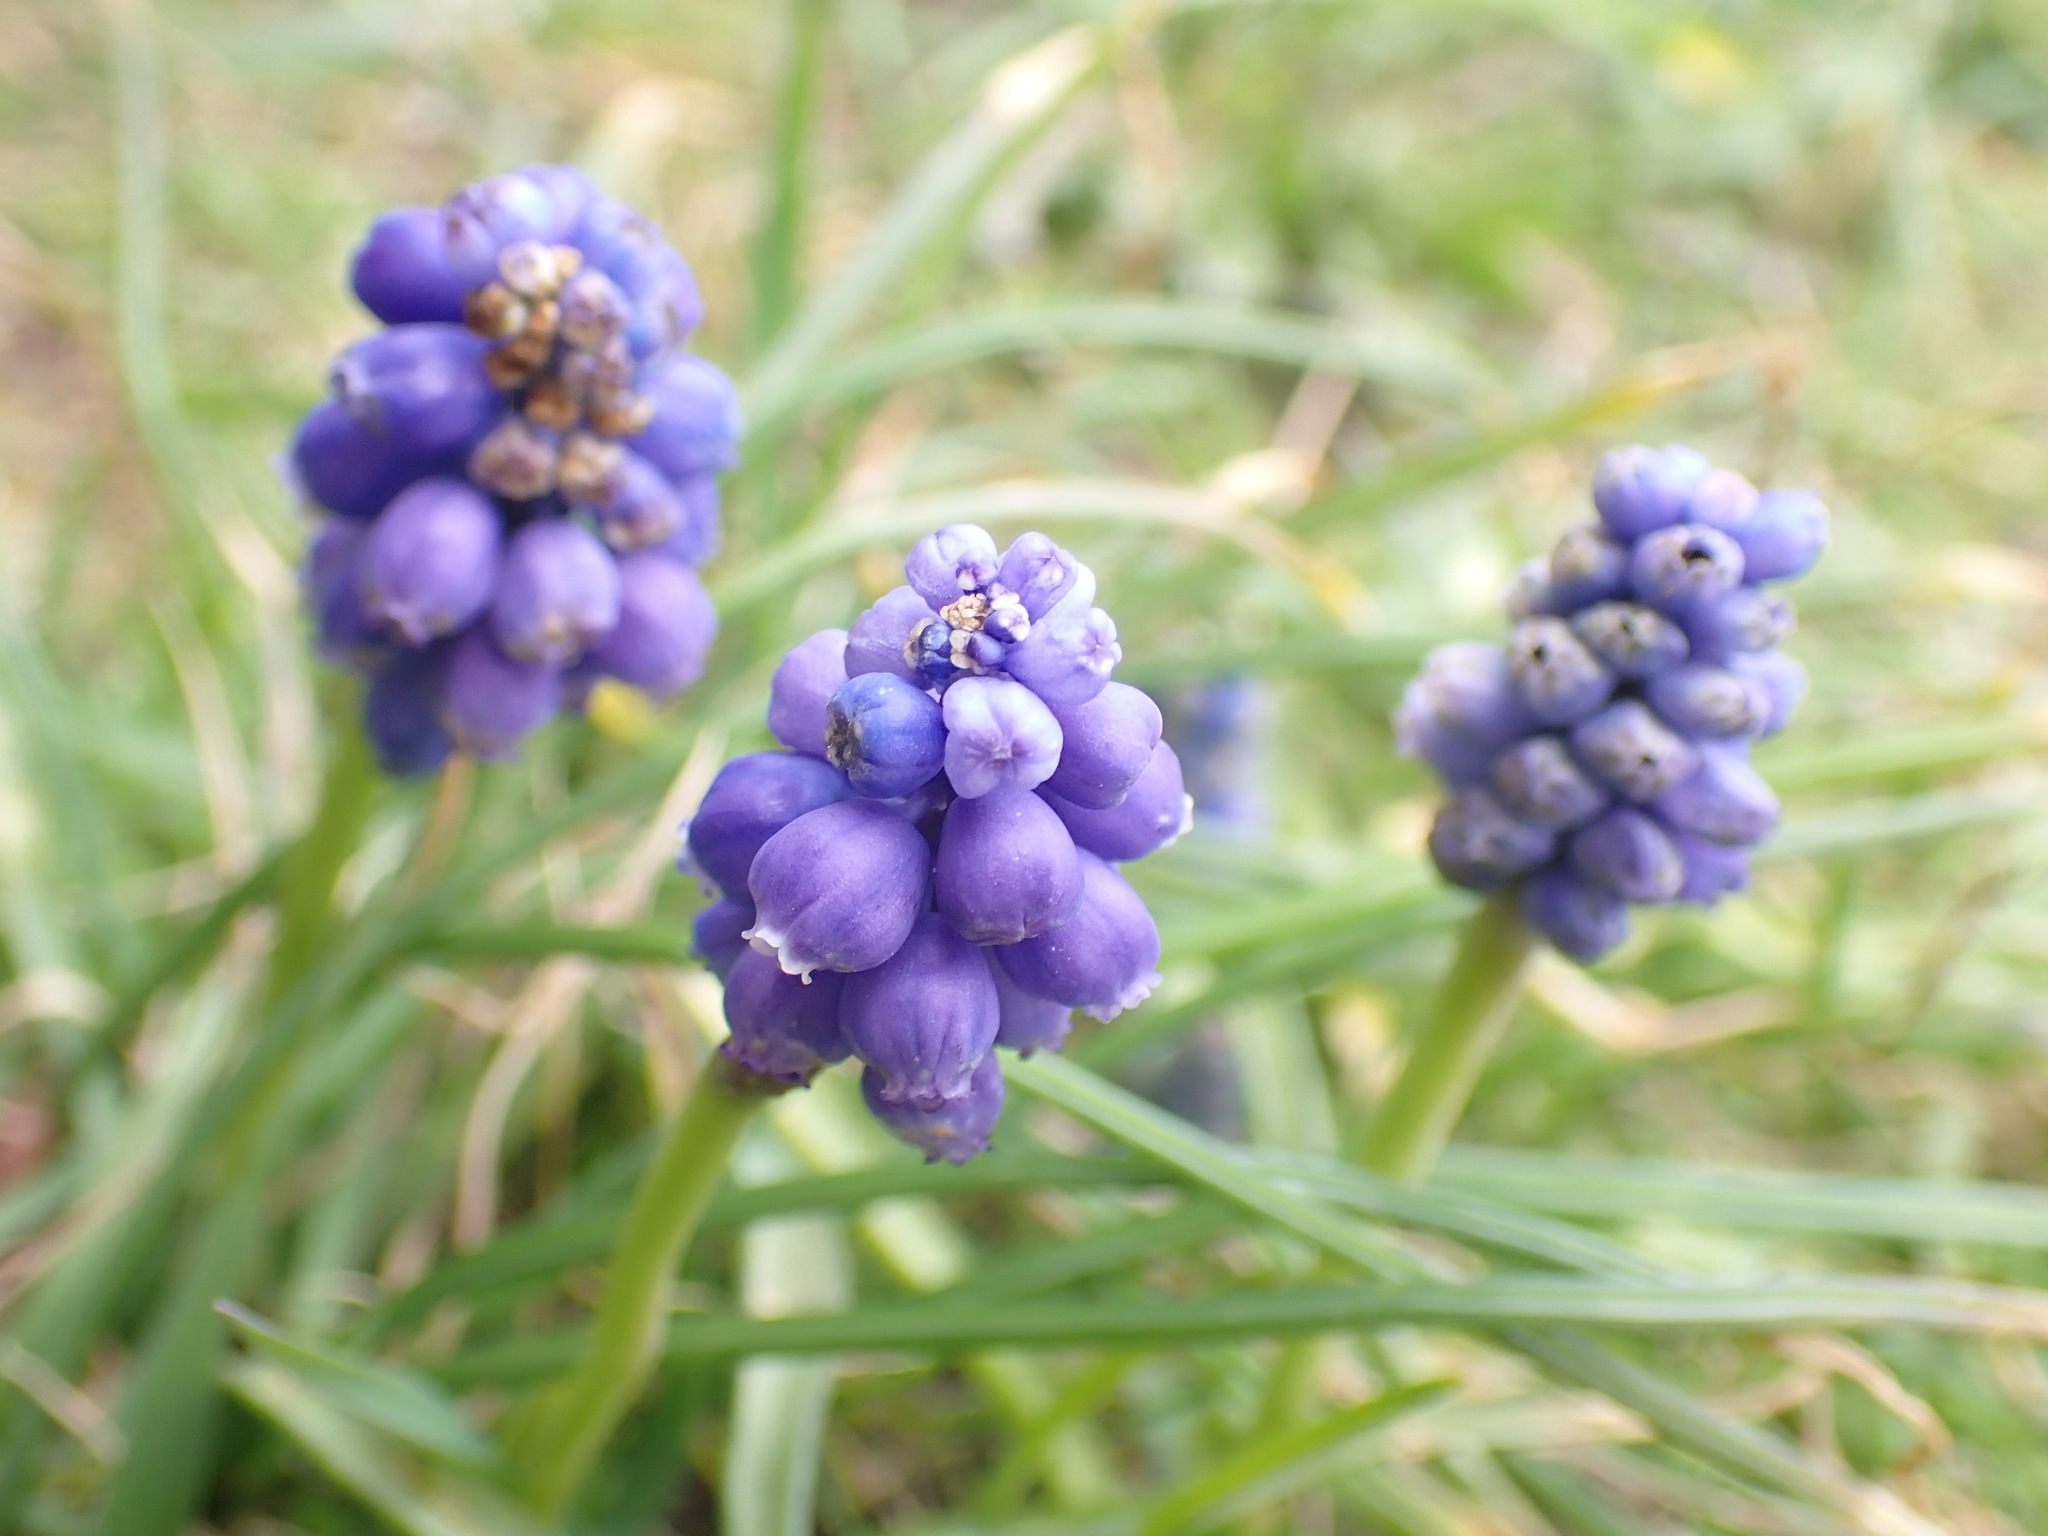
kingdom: Plantae
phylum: Tracheophyta
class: Liliopsida
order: Asparagales
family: Asparagaceae
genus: Muscari
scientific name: Muscari armeniacum
